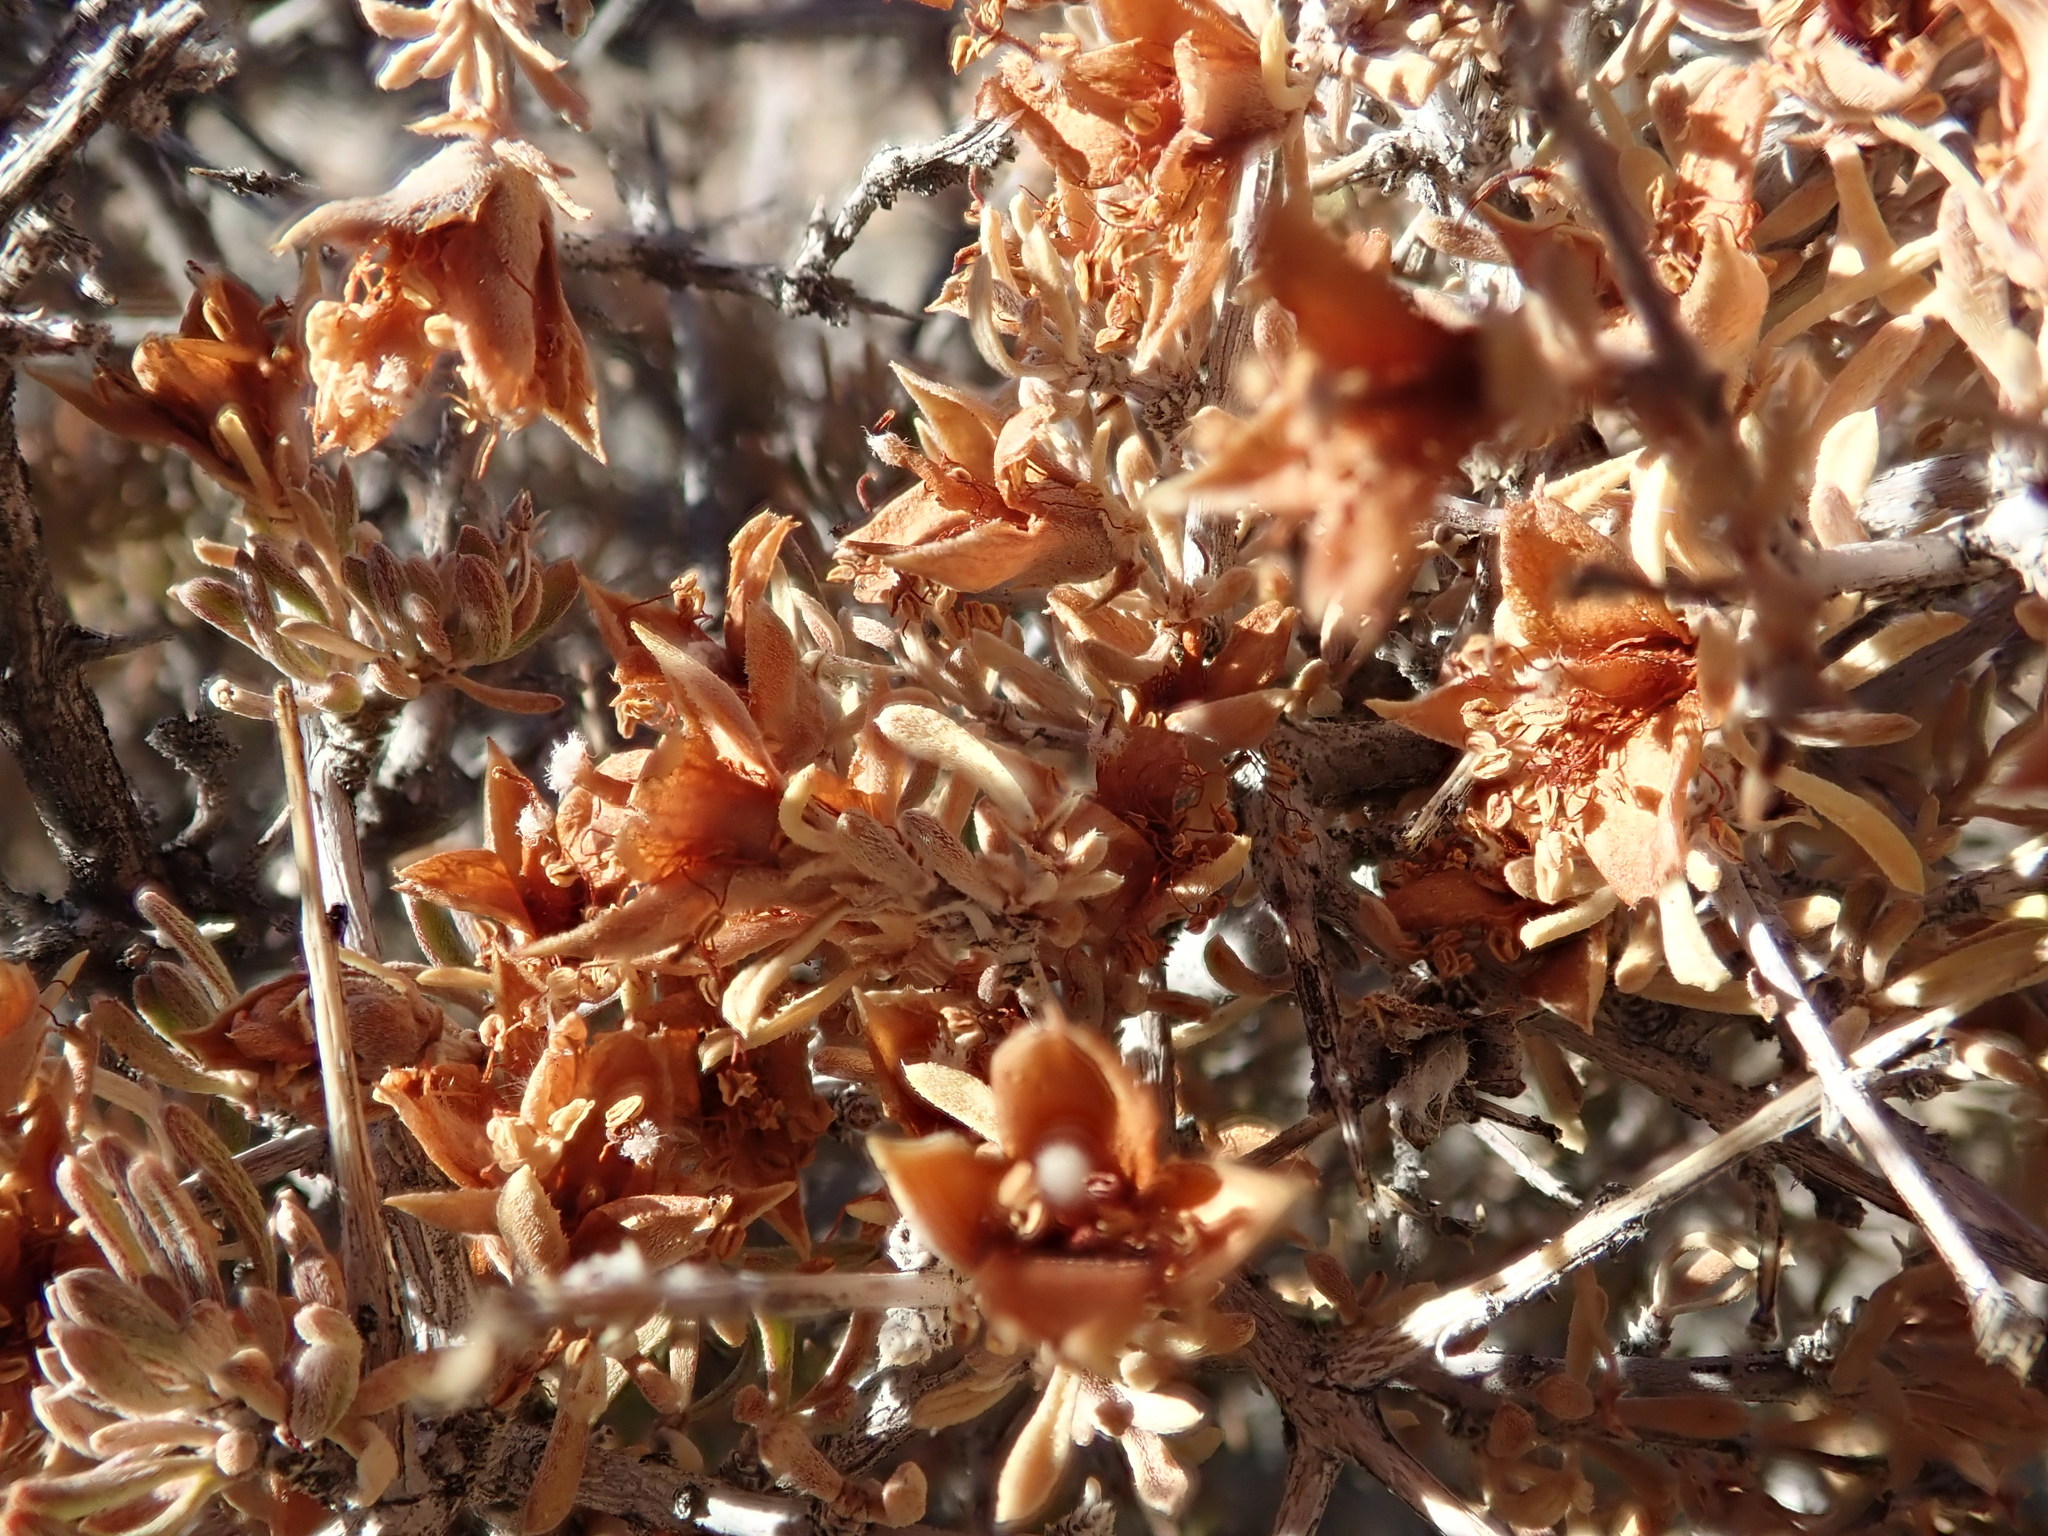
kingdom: Plantae
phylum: Tracheophyta
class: Magnoliopsida
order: Rosales
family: Rosaceae
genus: Coleogyne
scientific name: Coleogyne ramosissima
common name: Blackbrush
